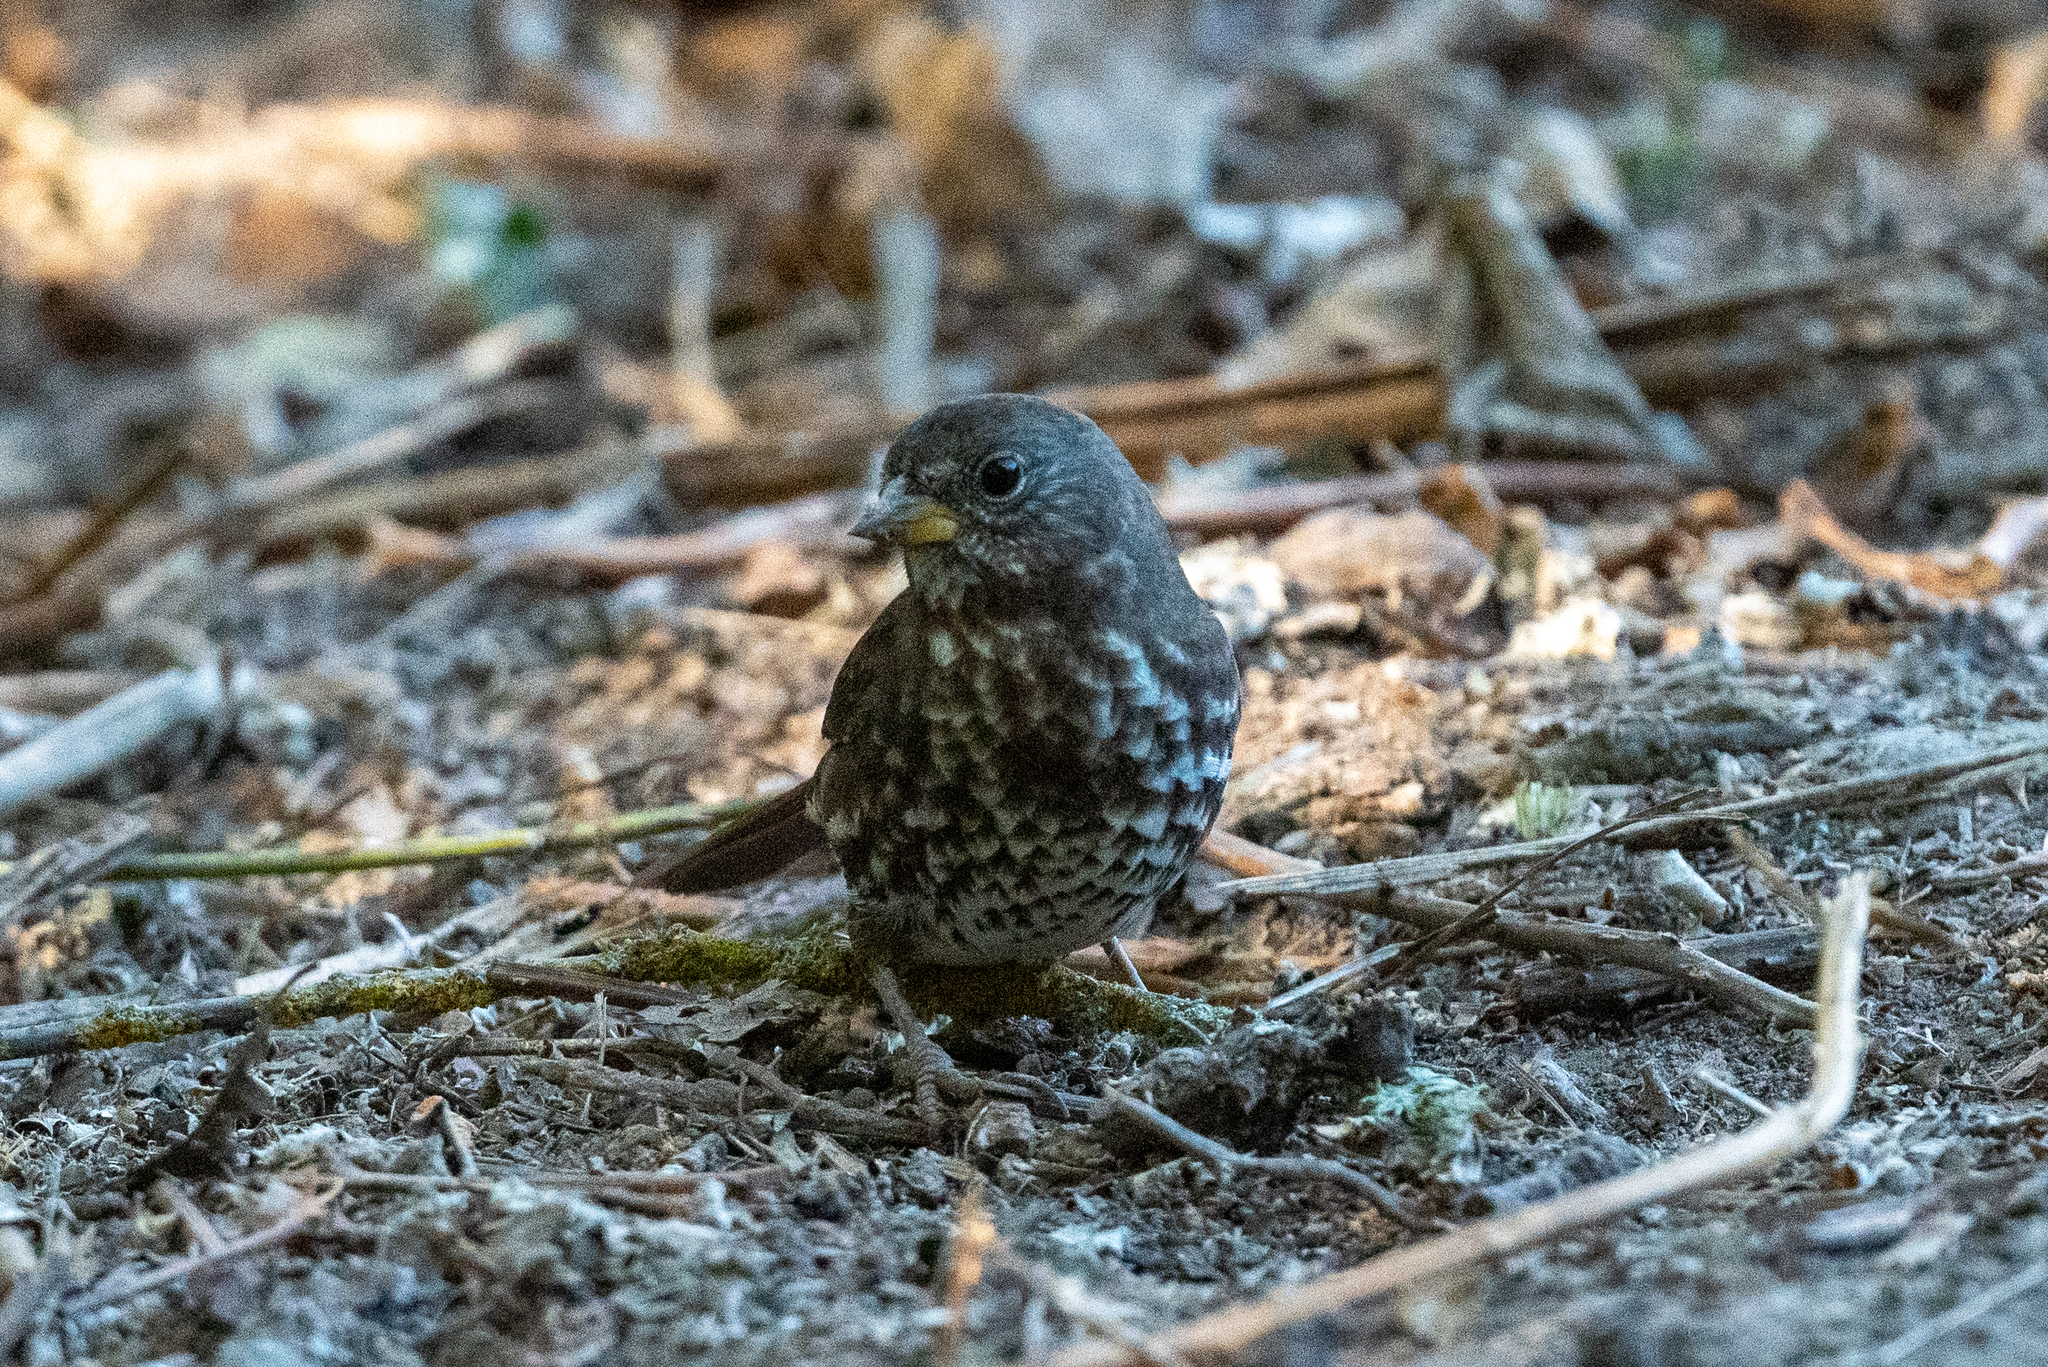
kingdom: Animalia
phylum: Chordata
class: Aves
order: Passeriformes
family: Passerellidae
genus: Passerella
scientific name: Passerella iliaca
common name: Fox sparrow
